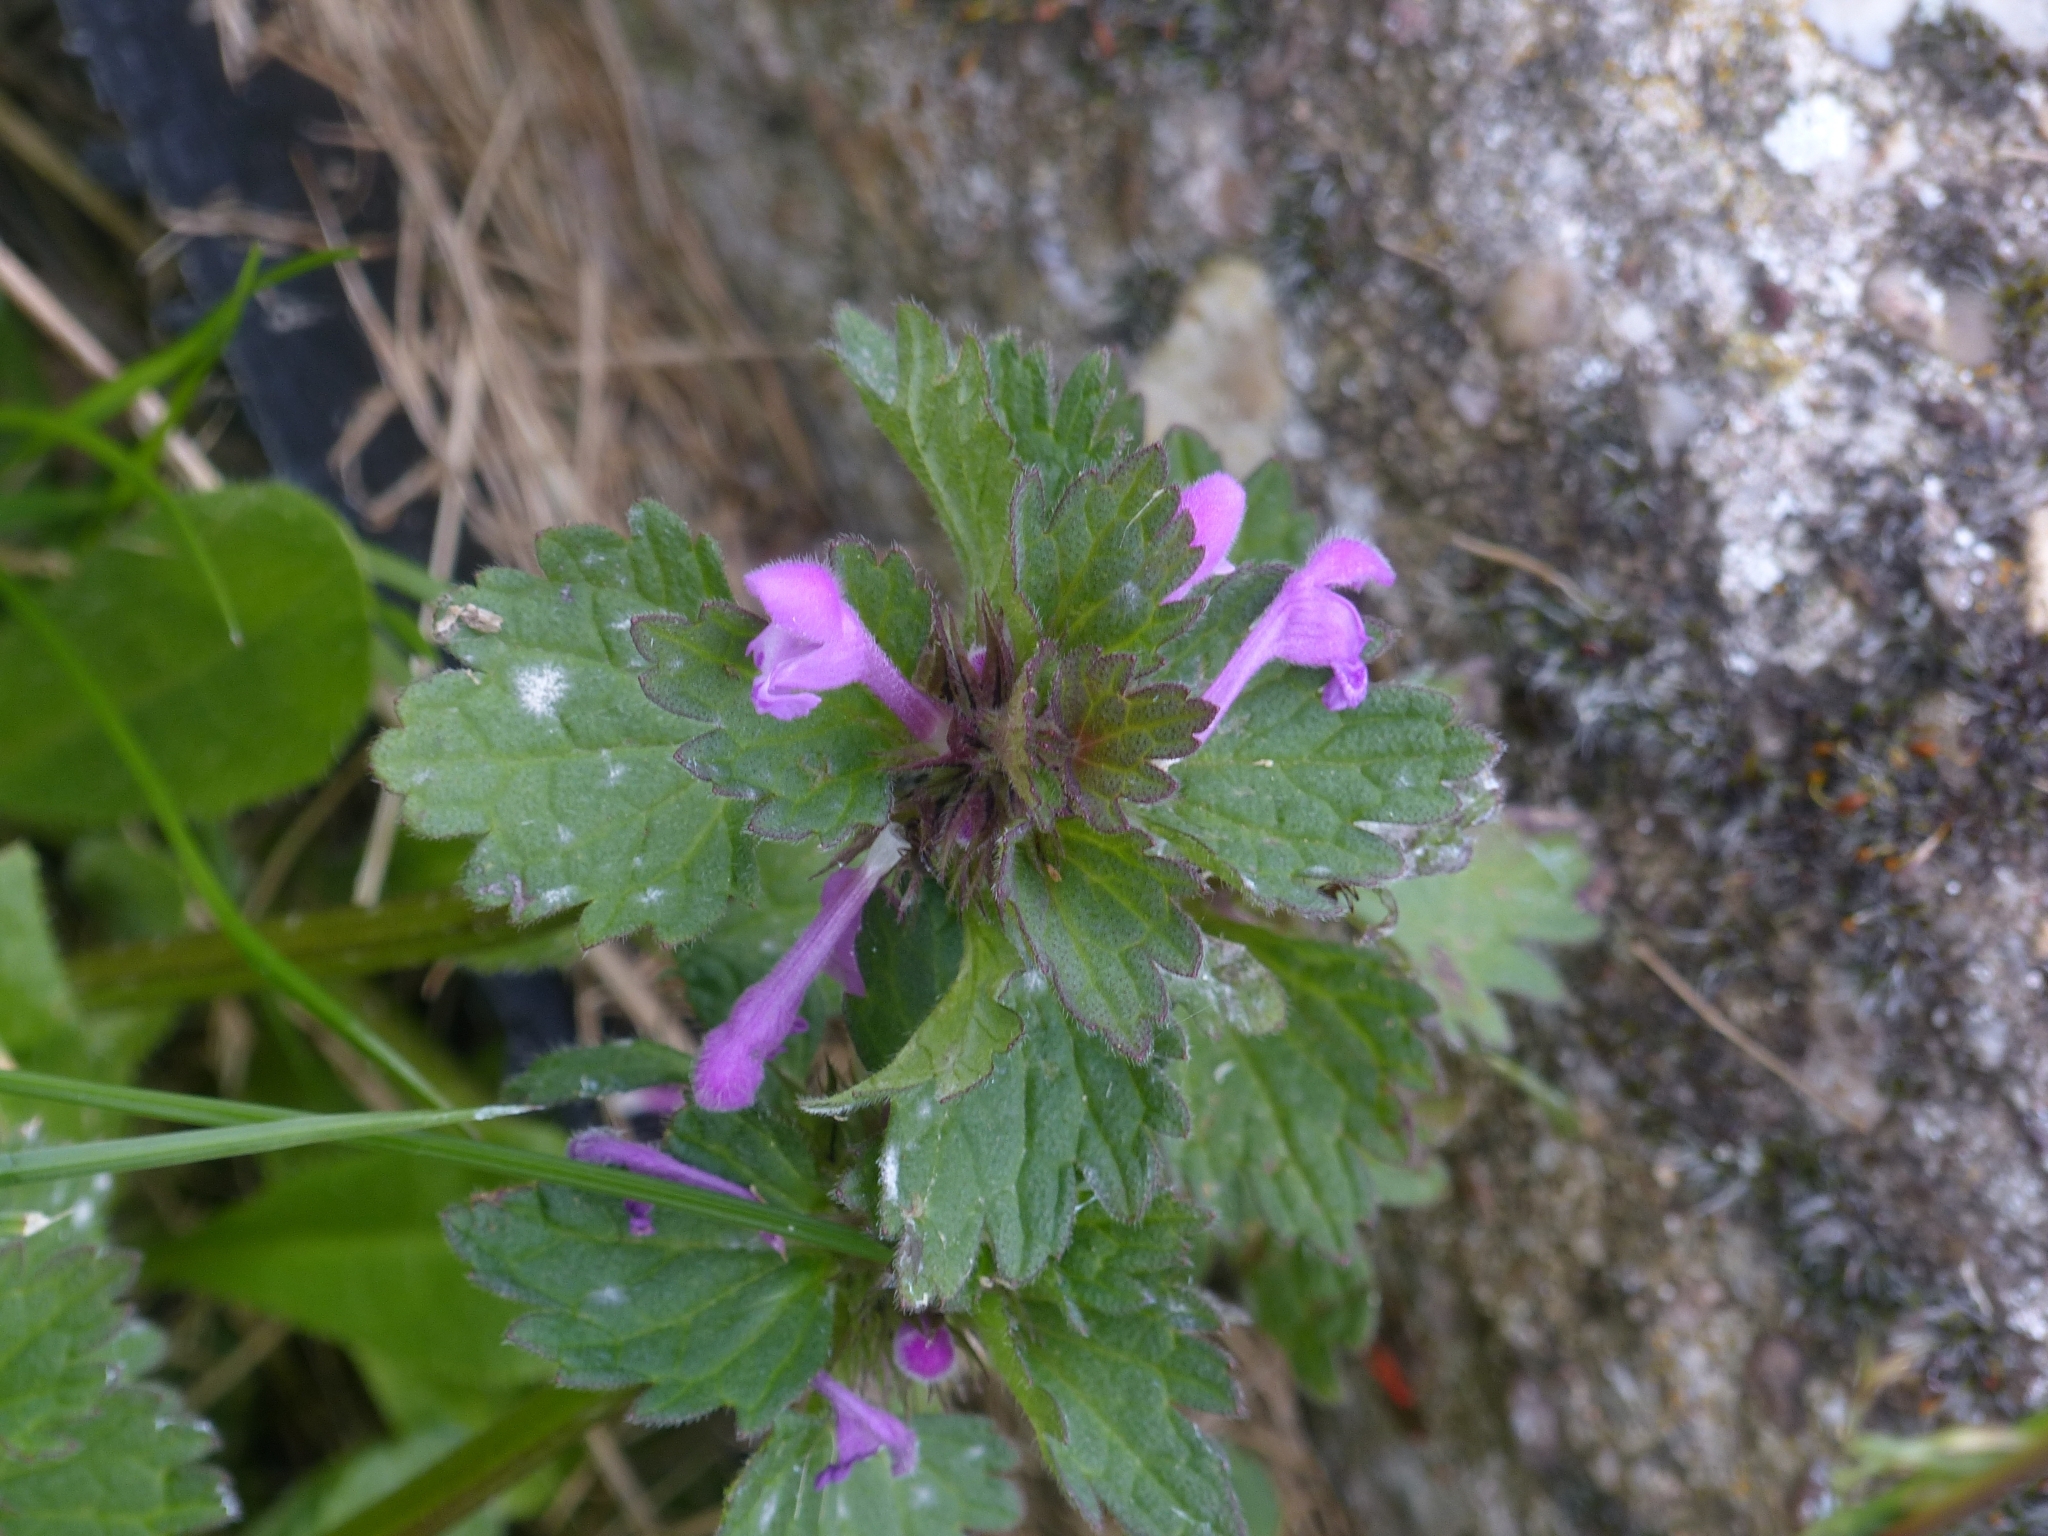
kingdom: Plantae
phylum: Tracheophyta
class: Magnoliopsida
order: Lamiales
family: Lamiaceae
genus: Lamium
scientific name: Lamium hybridum
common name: Cut-leaved dead-nettle
